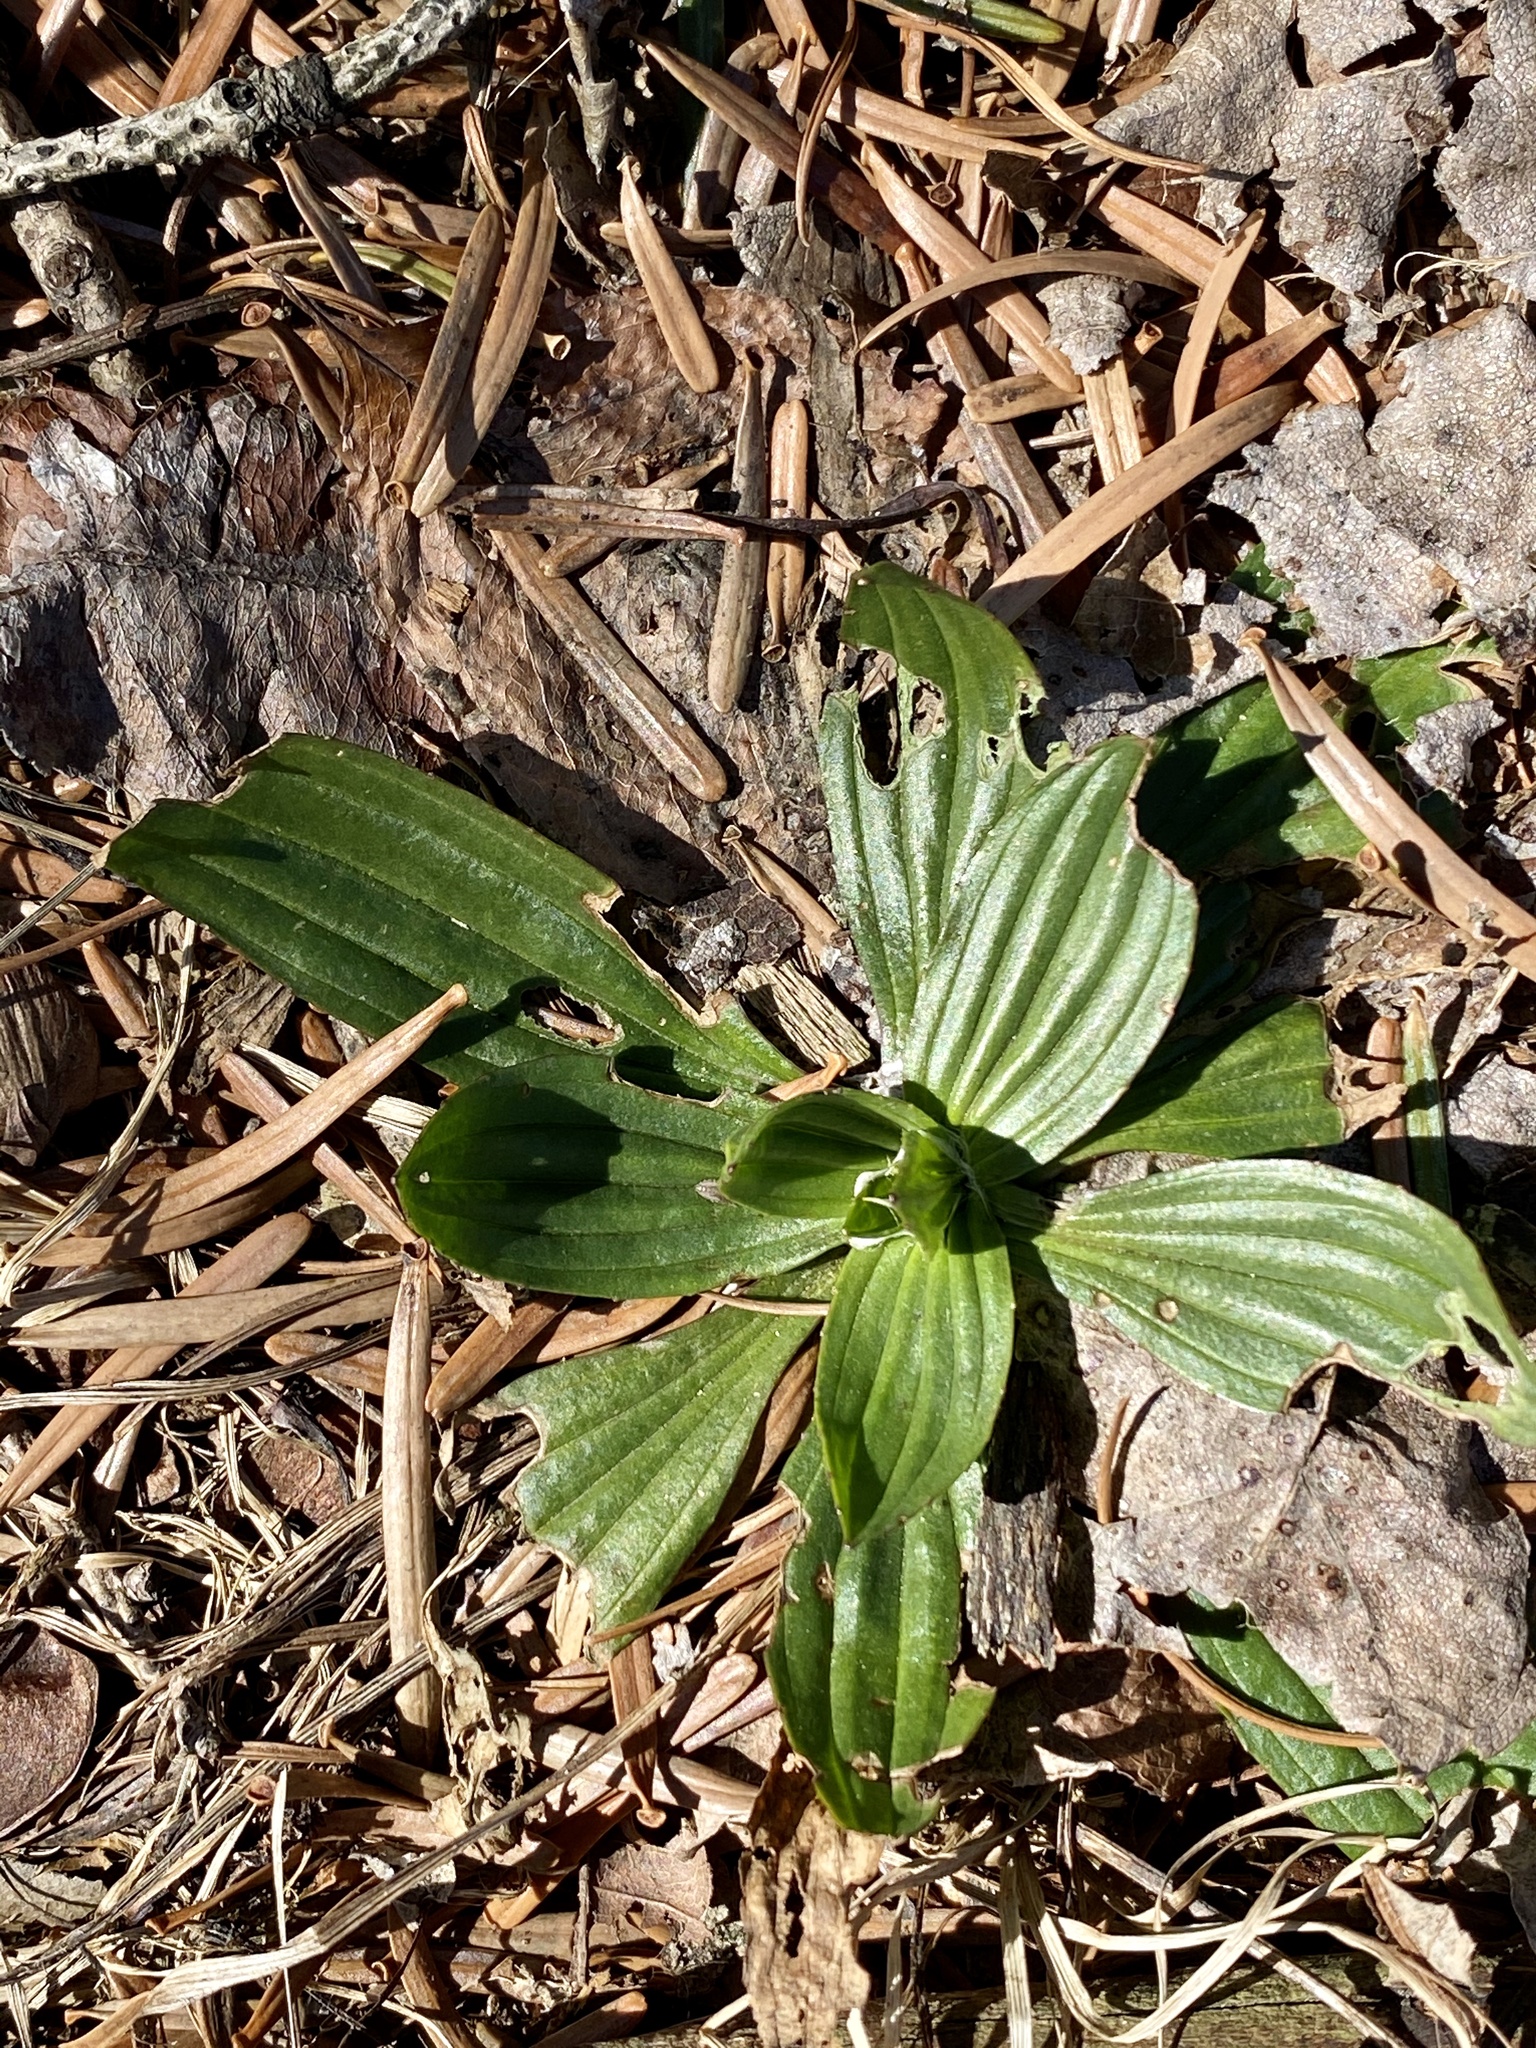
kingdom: Plantae
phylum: Tracheophyta
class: Magnoliopsida
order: Lamiales
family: Plantaginaceae
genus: Plantago
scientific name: Plantago lanceolata
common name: Ribwort plantain
